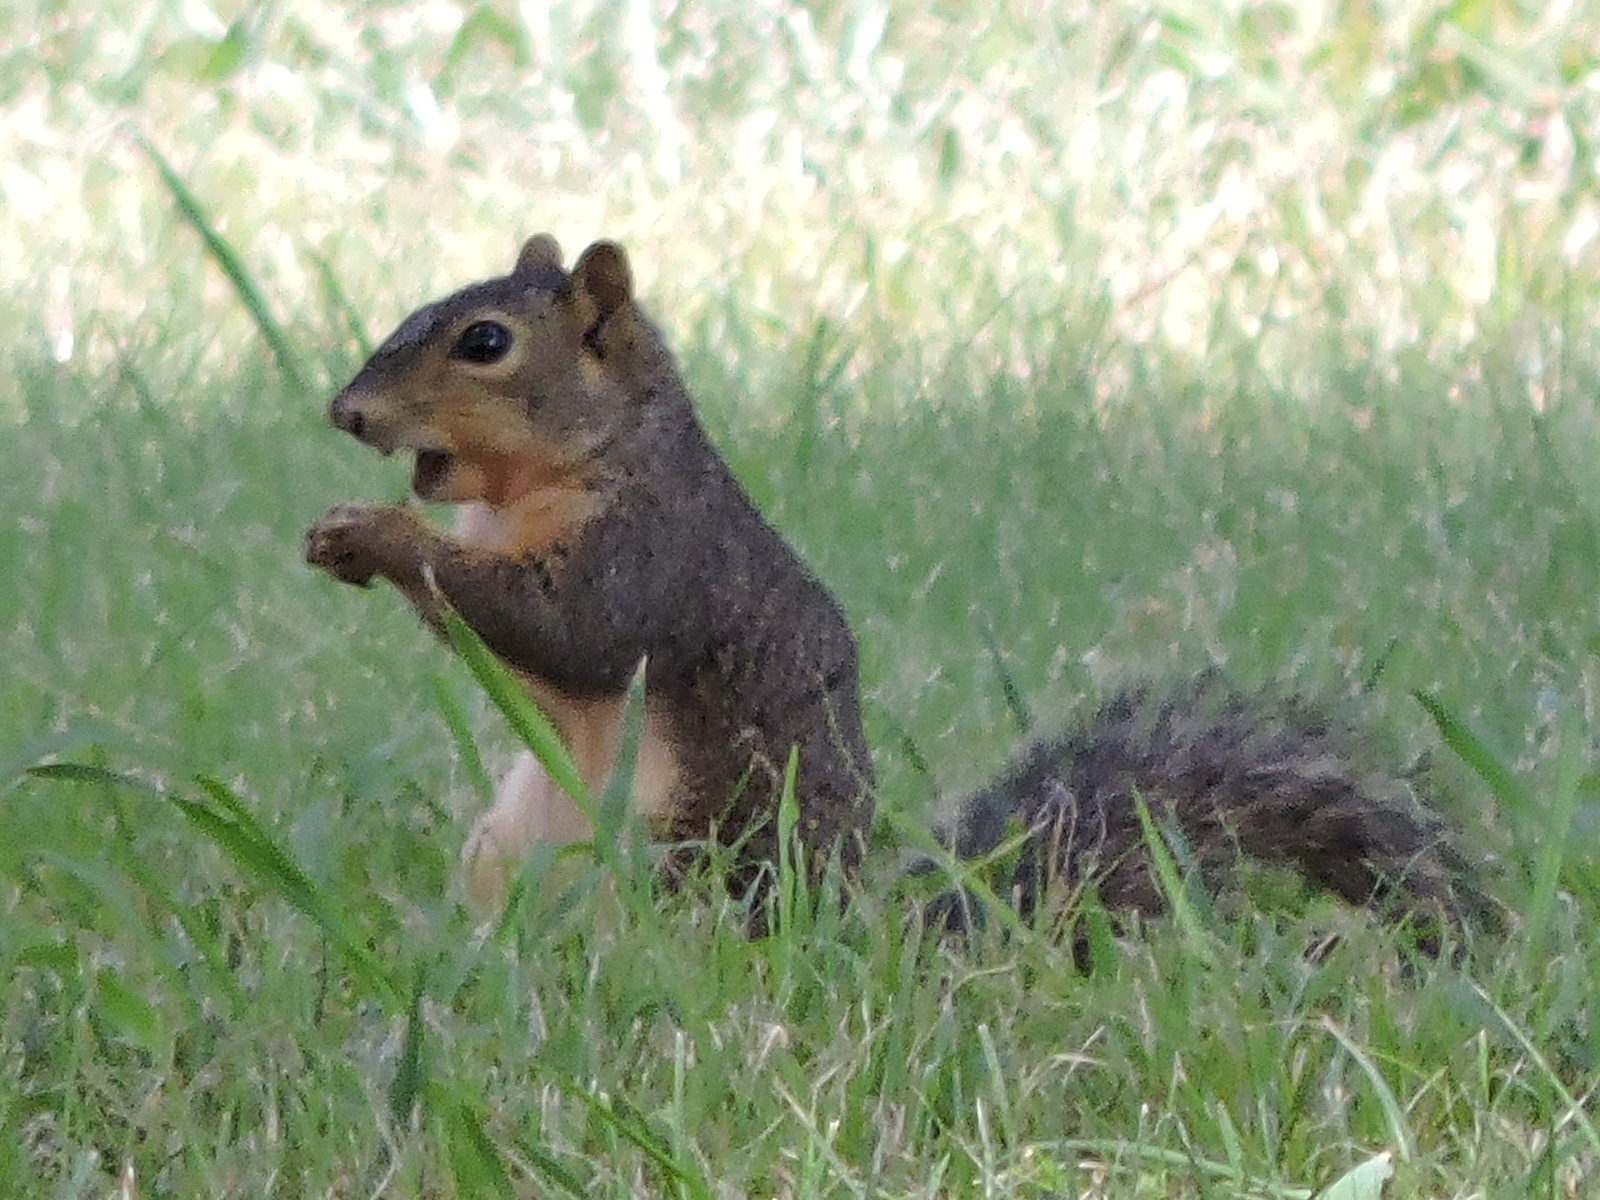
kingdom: Animalia
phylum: Chordata
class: Mammalia
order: Rodentia
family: Sciuridae
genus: Sciurus
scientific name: Sciurus niger
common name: Fox squirrel
